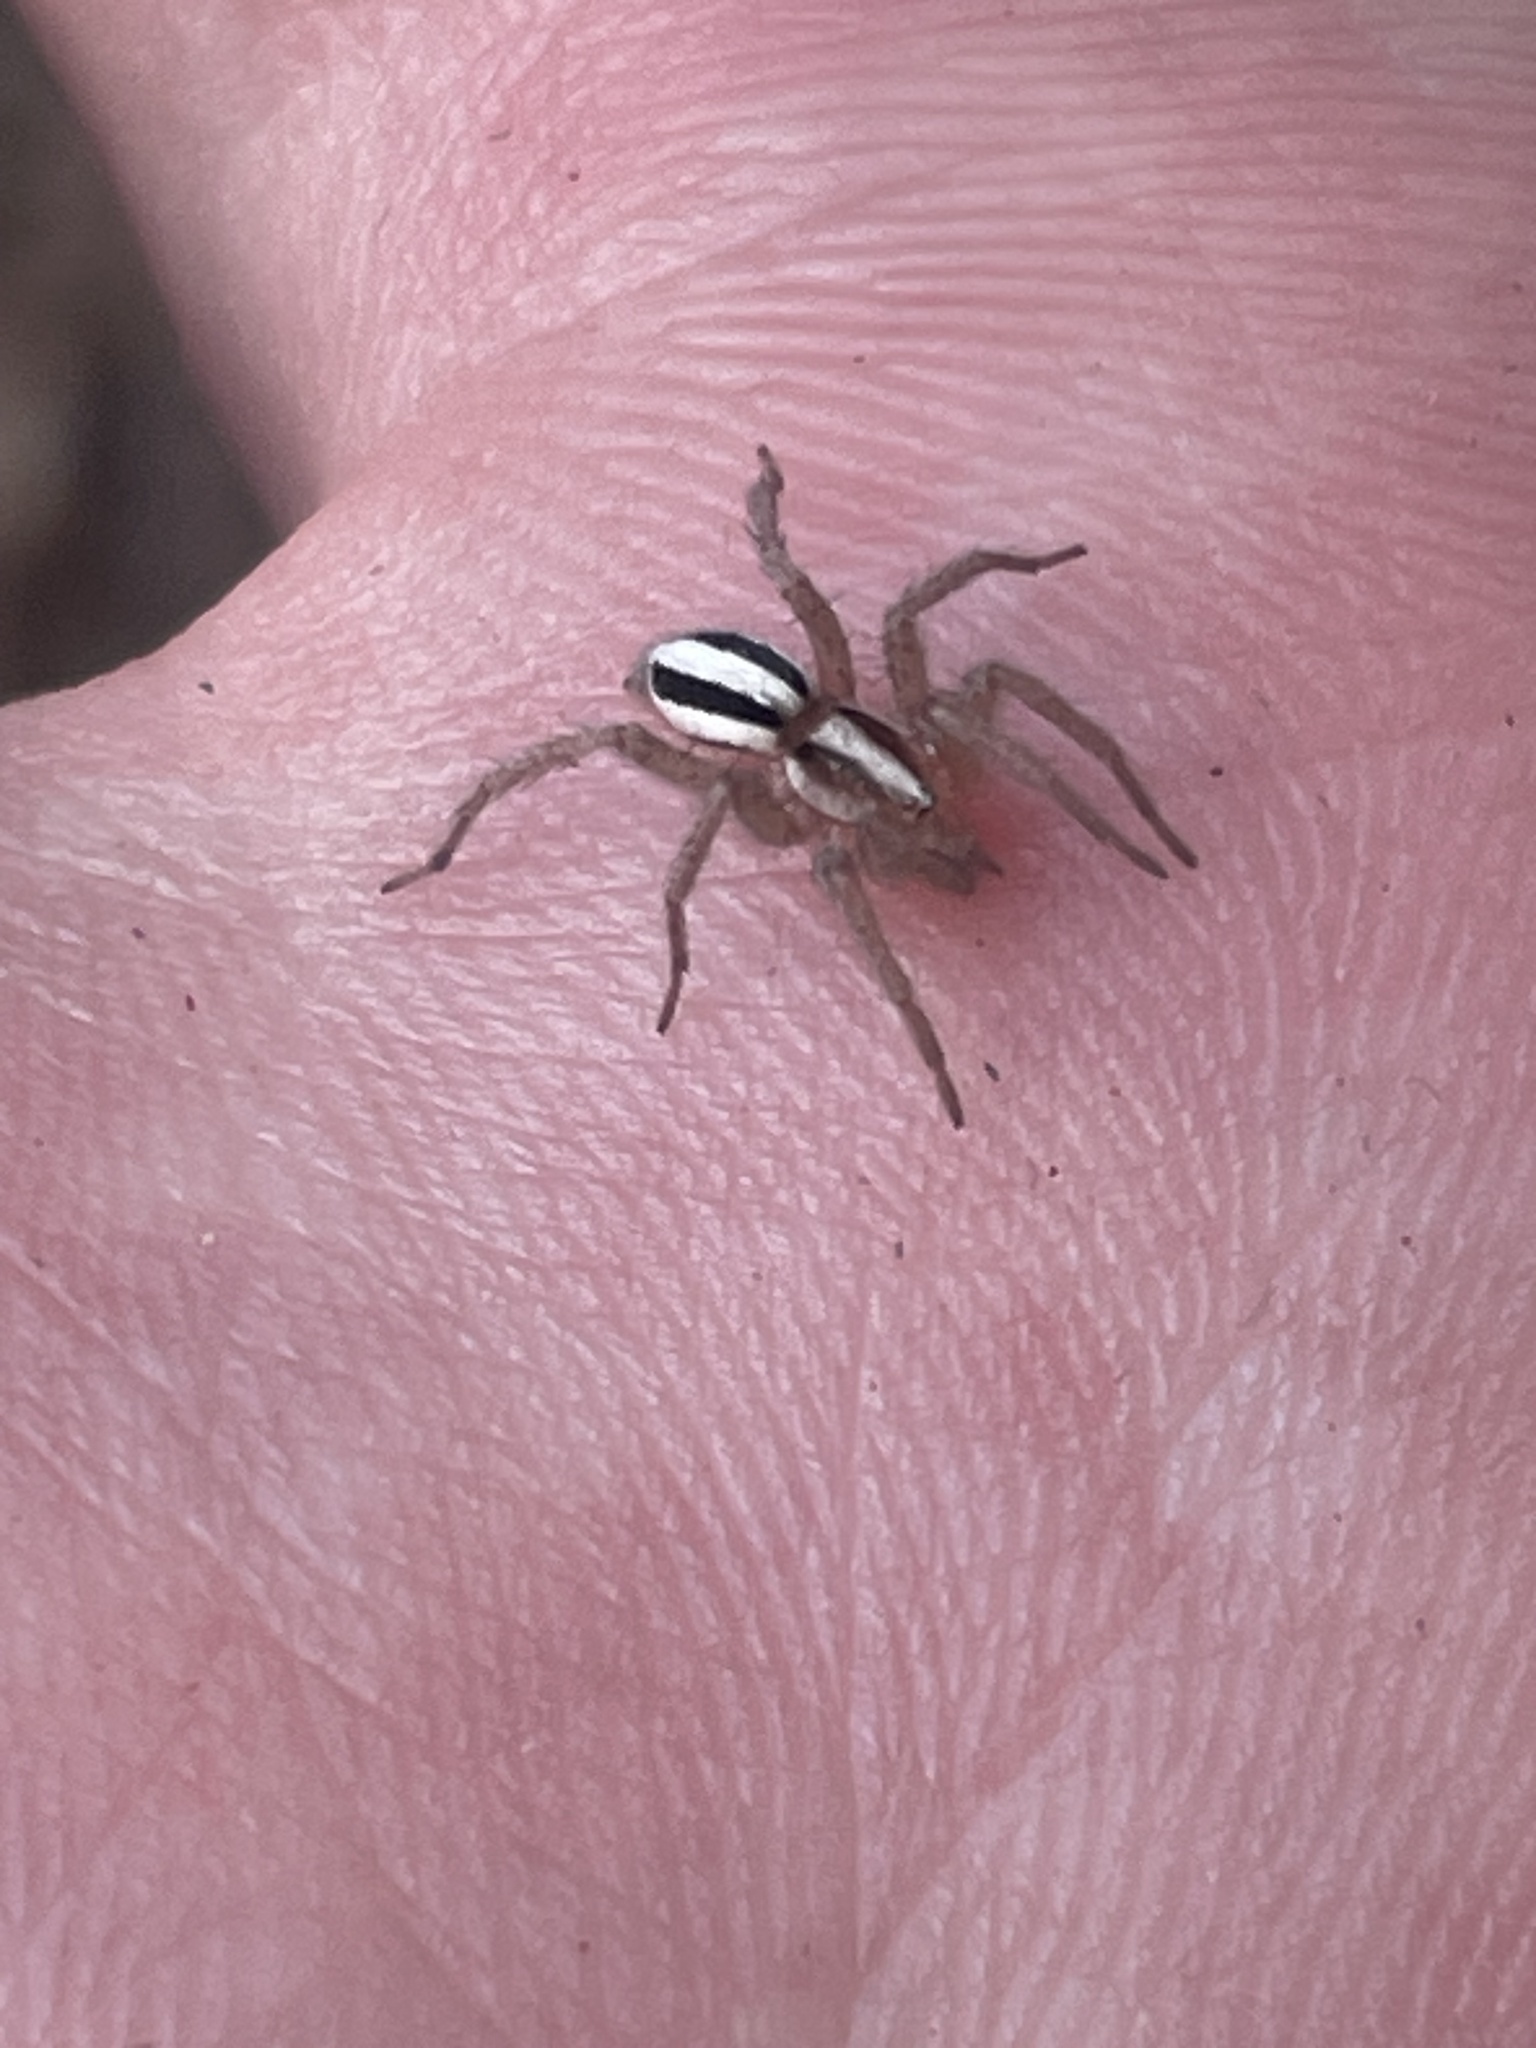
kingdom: Animalia
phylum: Arthropoda
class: Arachnida
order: Araneae
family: Gnaphosidae
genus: Cesonia
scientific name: Cesonia bilineata
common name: Two-lined stealthy ground spider
